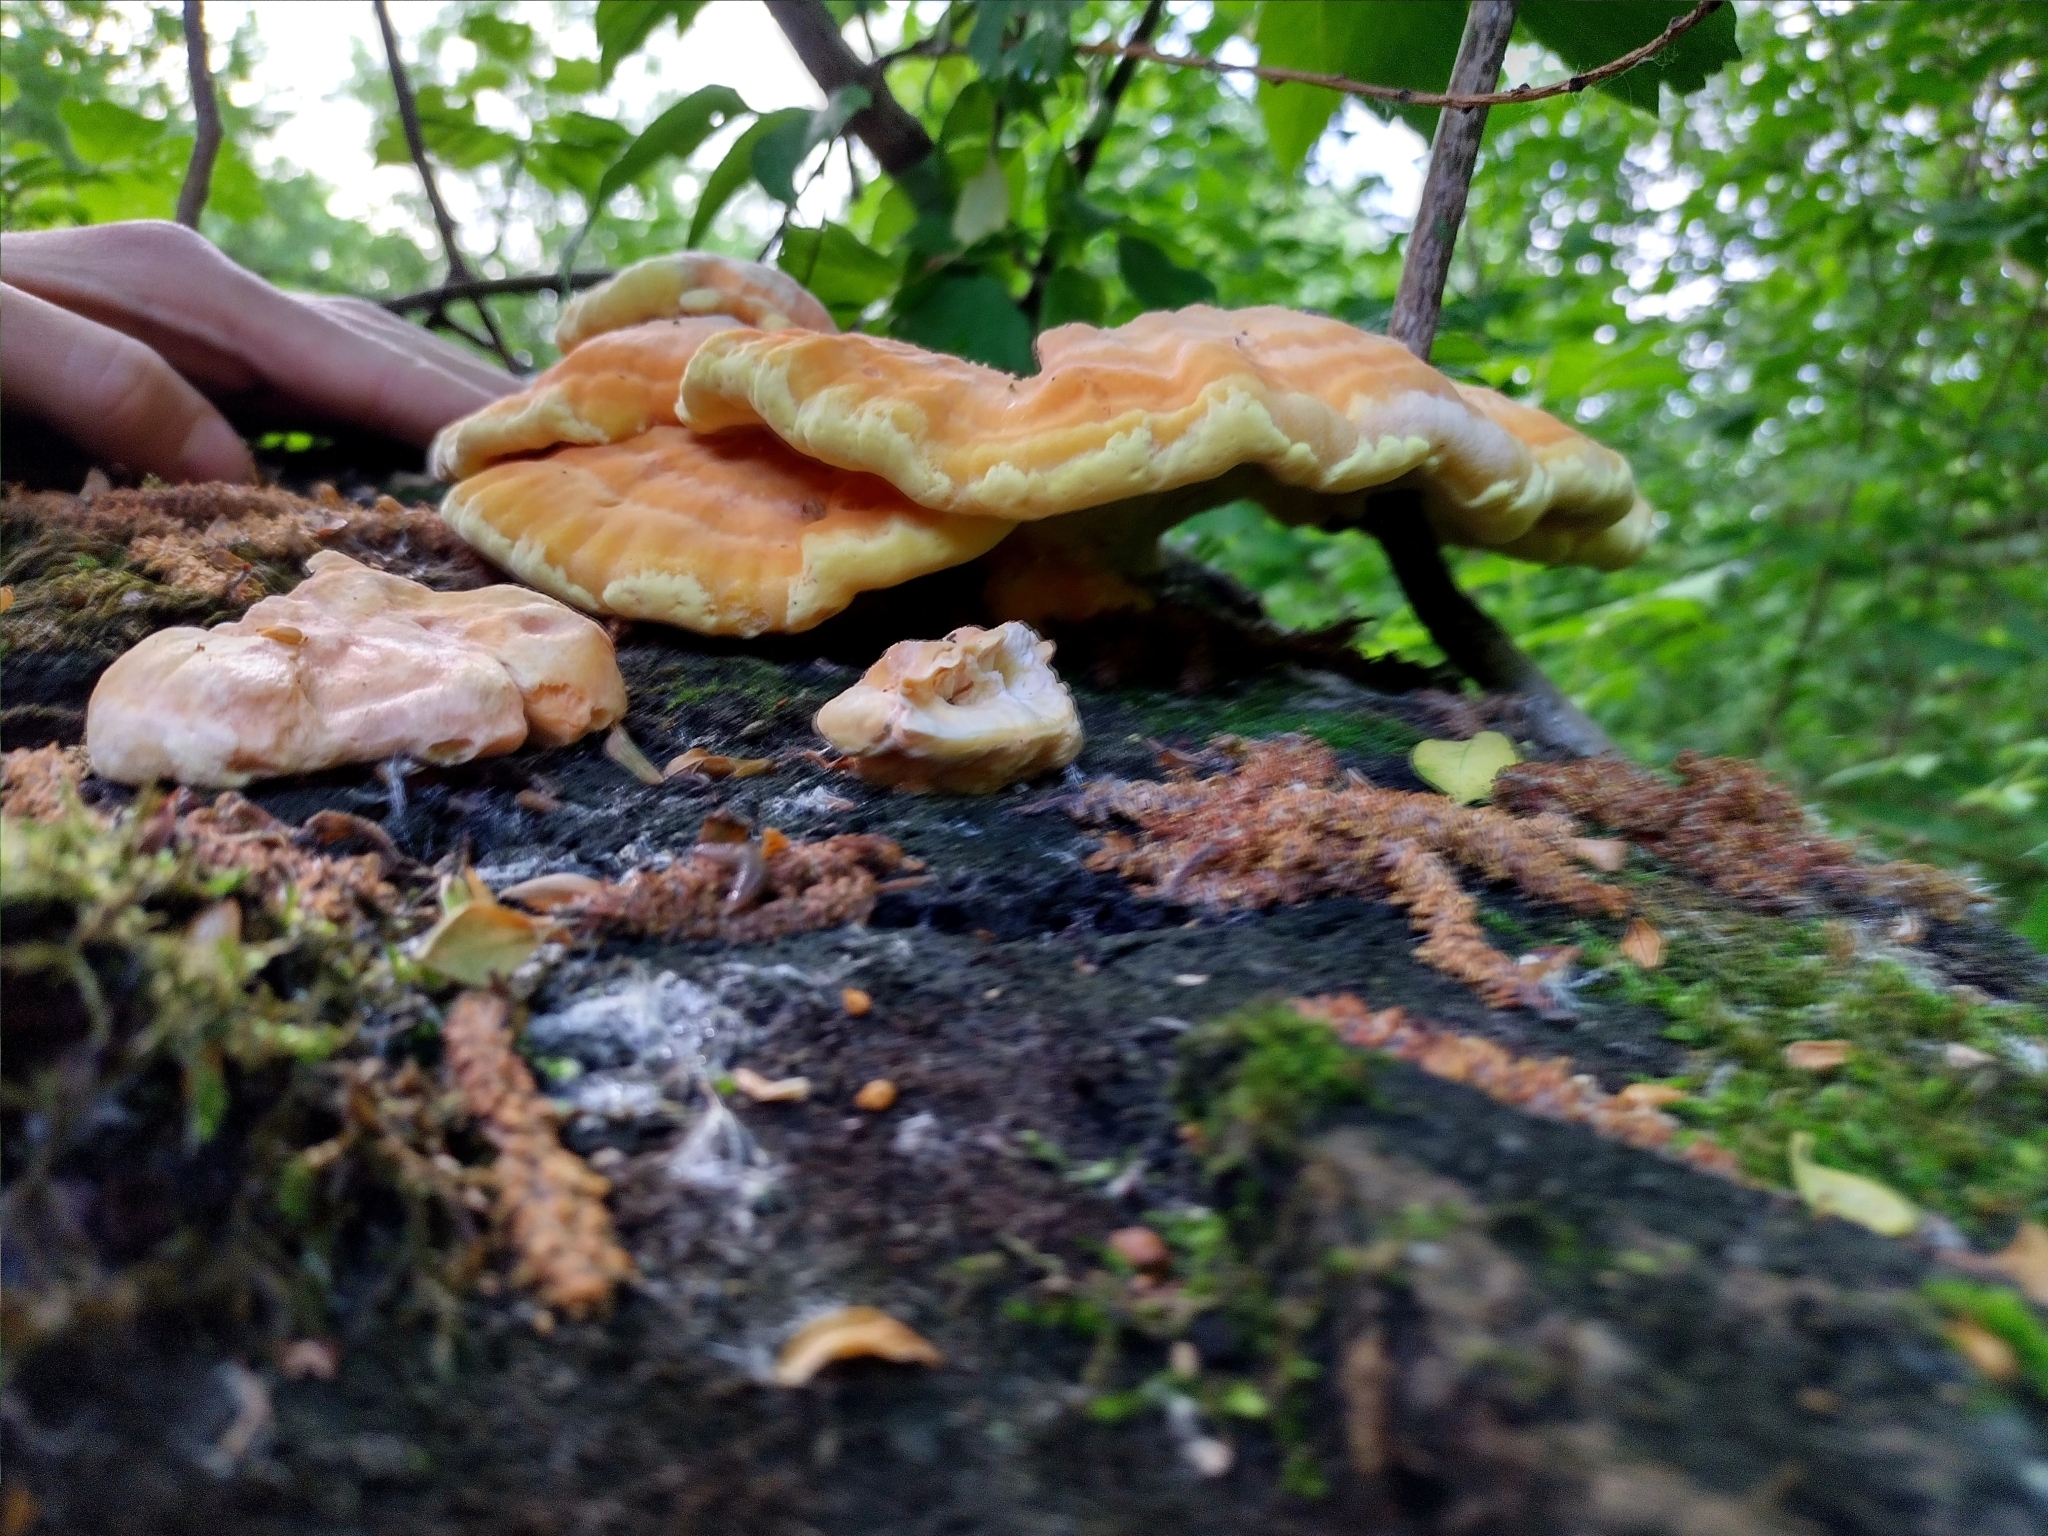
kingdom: Fungi
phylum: Basidiomycota
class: Agaricomycetes
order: Polyporales
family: Laetiporaceae
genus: Laetiporus
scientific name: Laetiporus sulphureus
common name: Chicken of the woods
